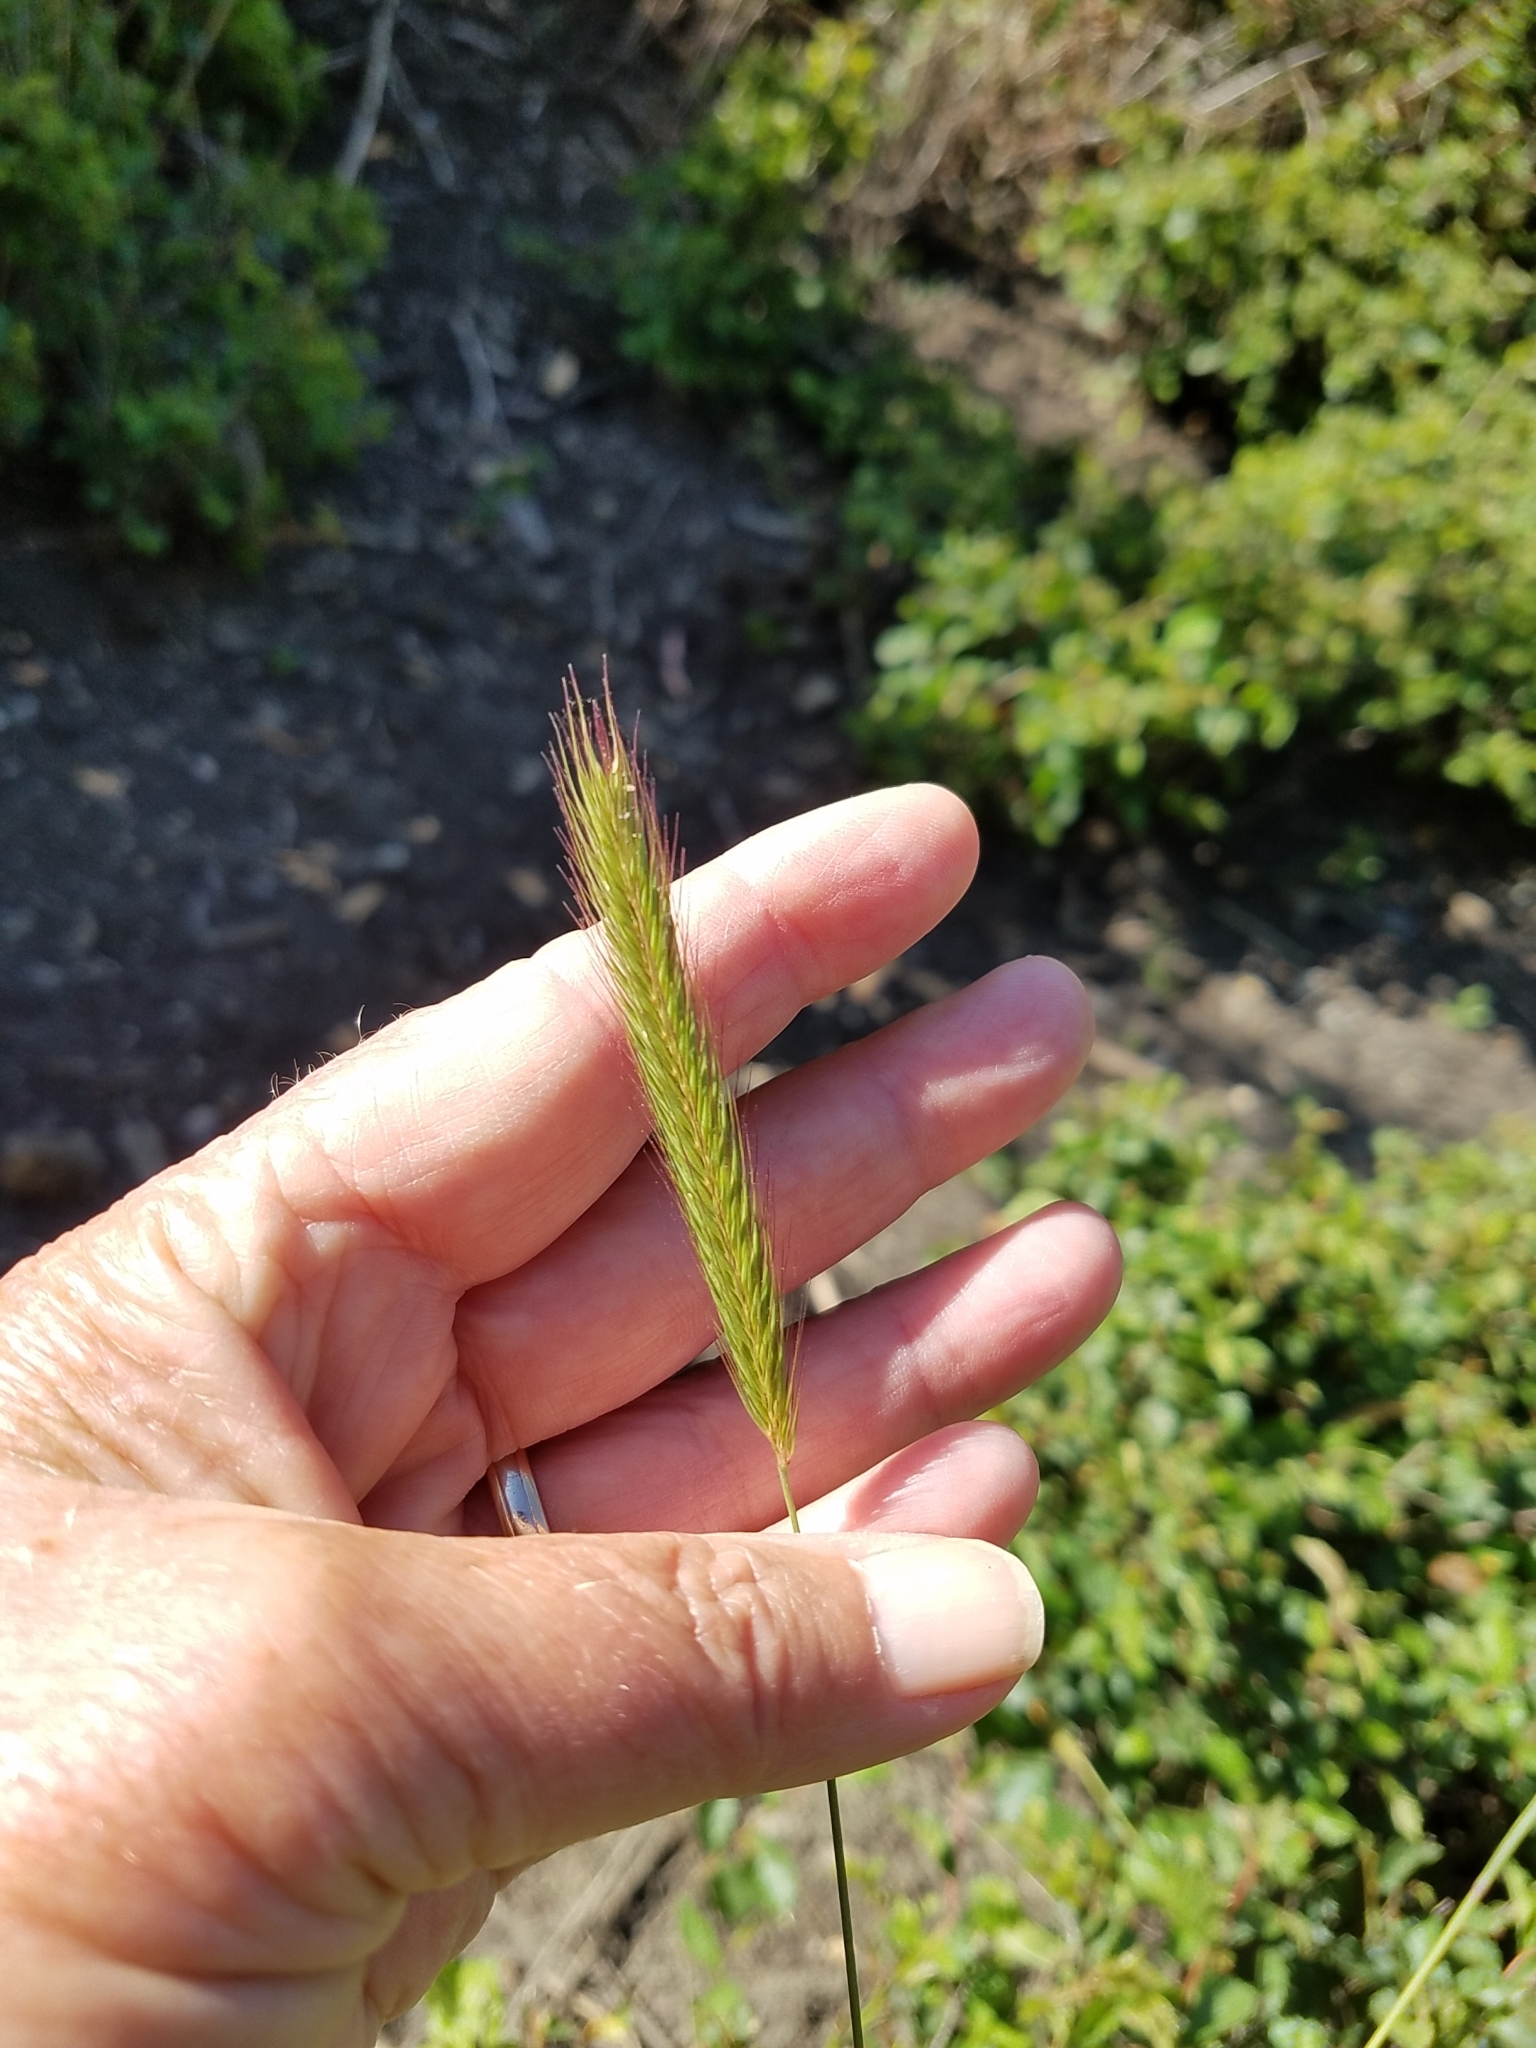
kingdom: Plantae
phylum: Tracheophyta
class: Liliopsida
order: Poales
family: Poaceae
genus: Hordeum
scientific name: Hordeum brachyantherum
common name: Meadow barley
